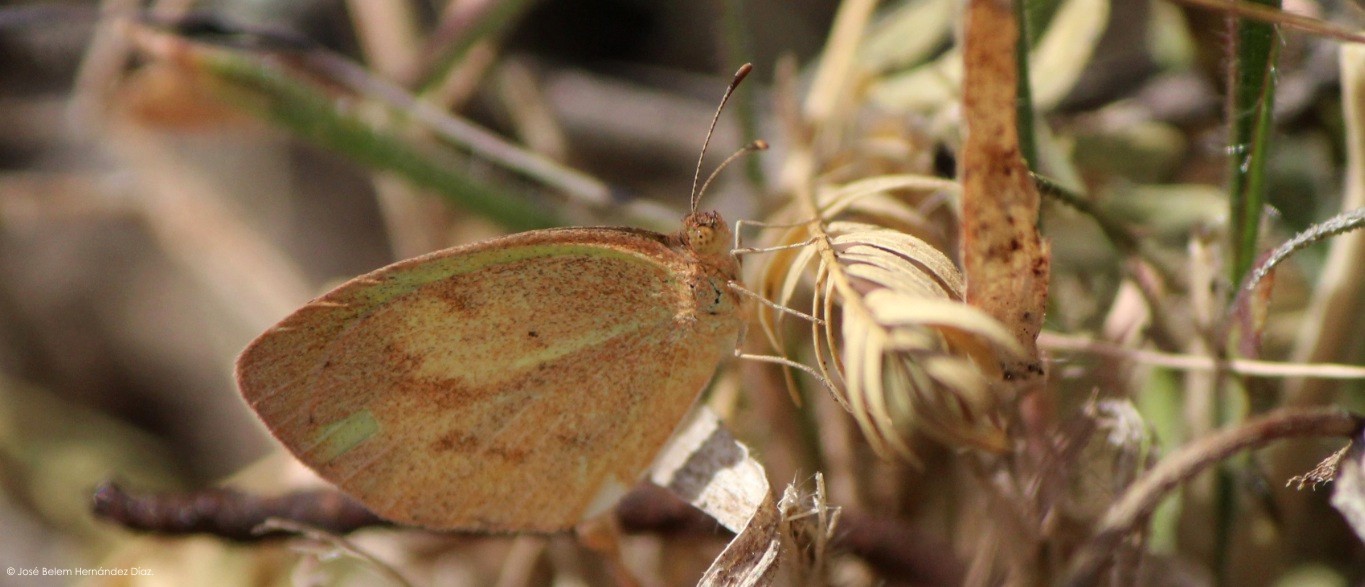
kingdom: Animalia
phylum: Arthropoda
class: Insecta
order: Lepidoptera
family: Pieridae
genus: Eurema
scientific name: Eurema daira
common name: Barred sulphur
